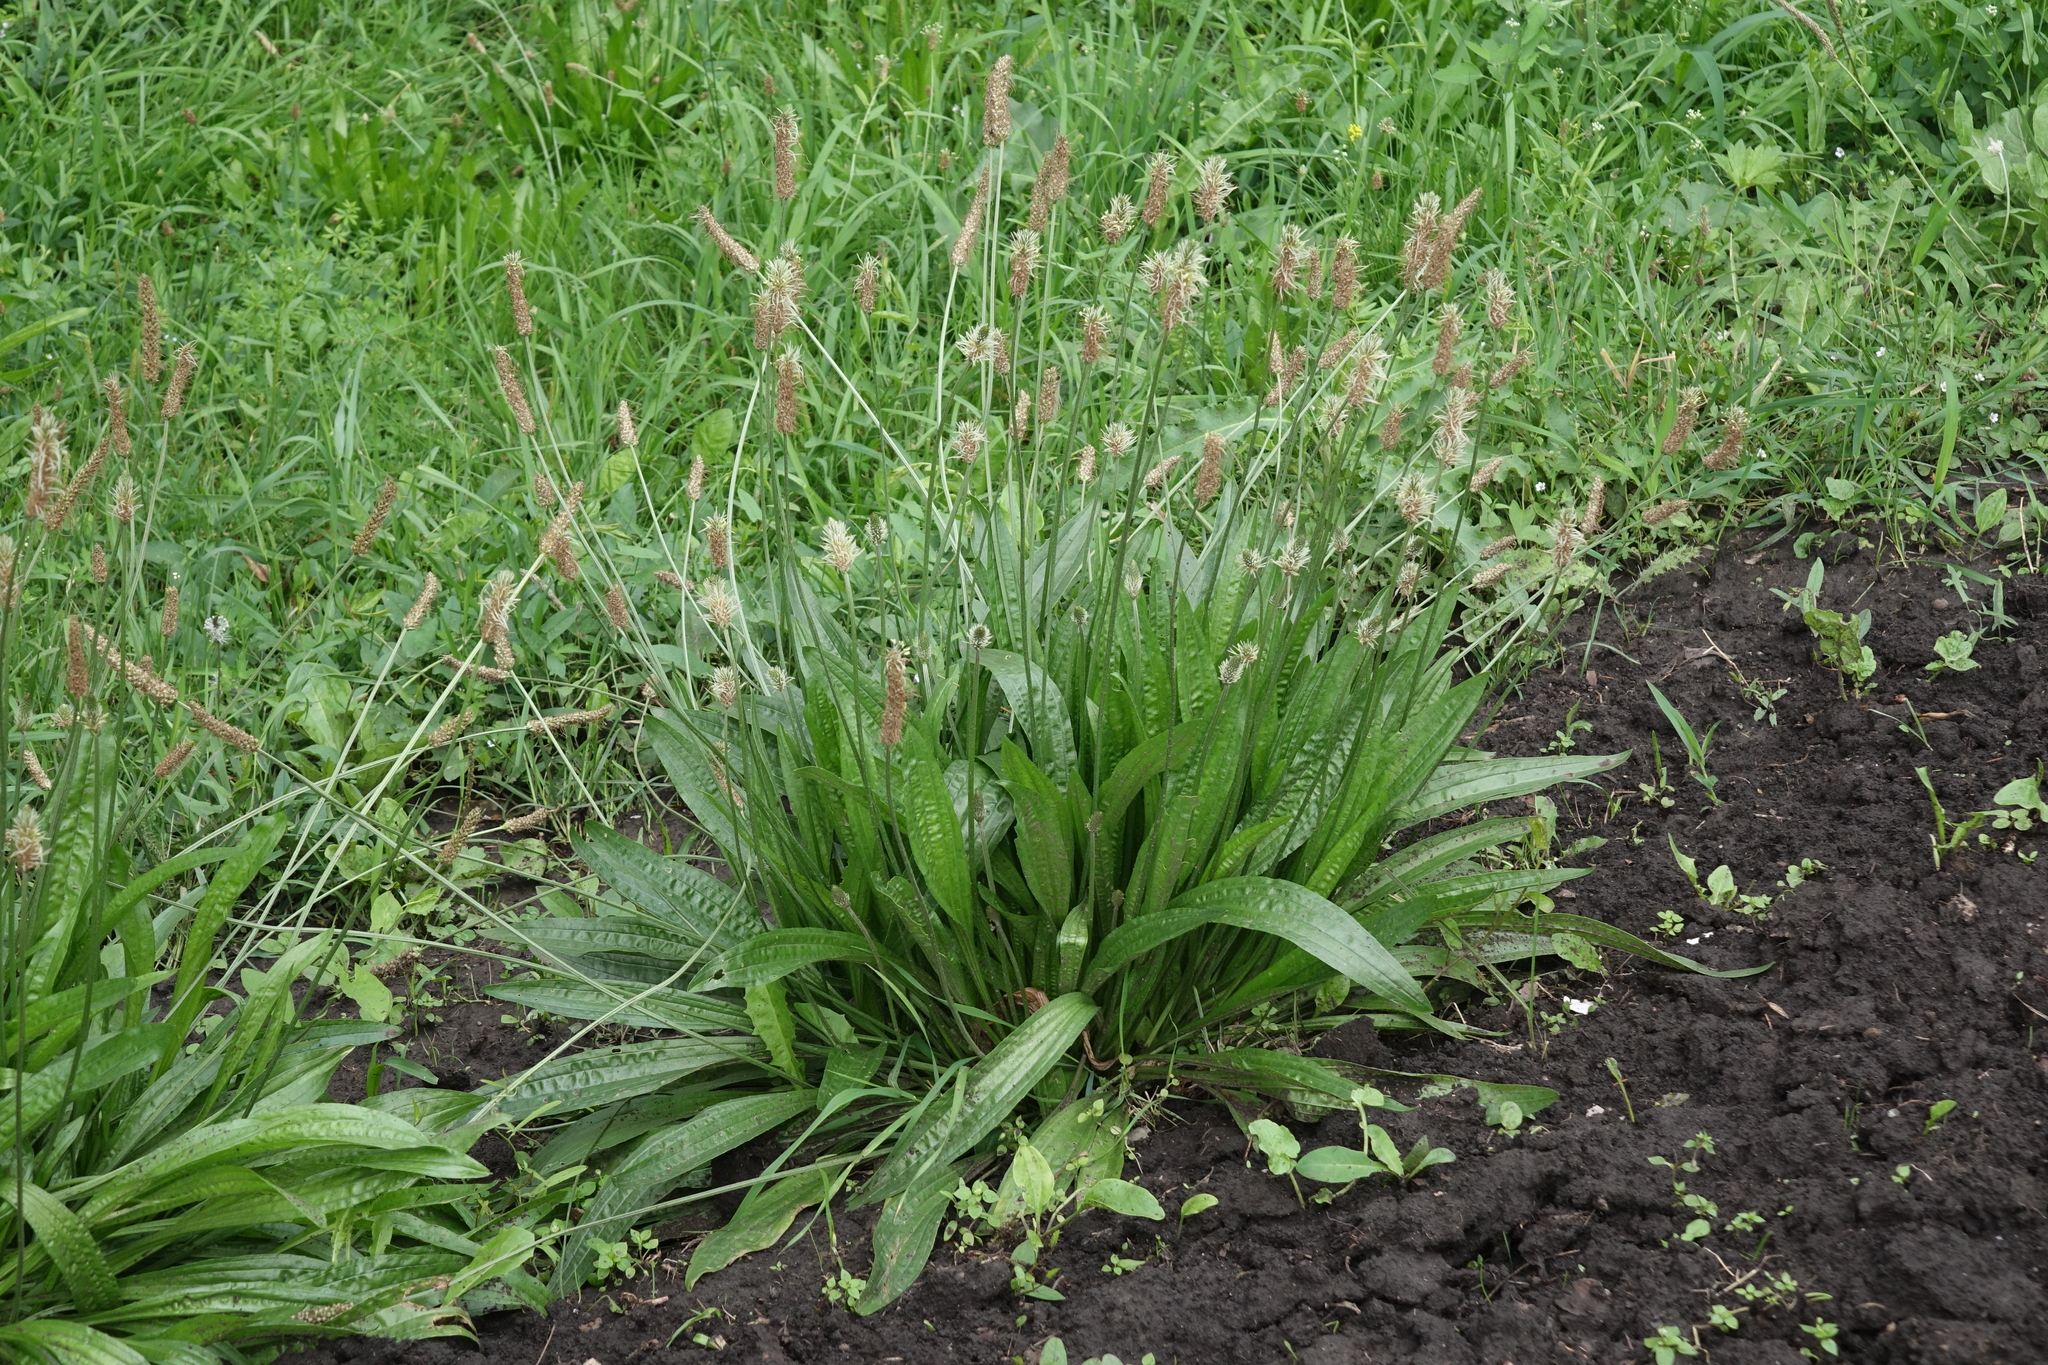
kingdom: Plantae
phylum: Tracheophyta
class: Magnoliopsida
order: Lamiales
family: Plantaginaceae
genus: Plantago
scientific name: Plantago lanceolata
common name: Ribwort plantain
